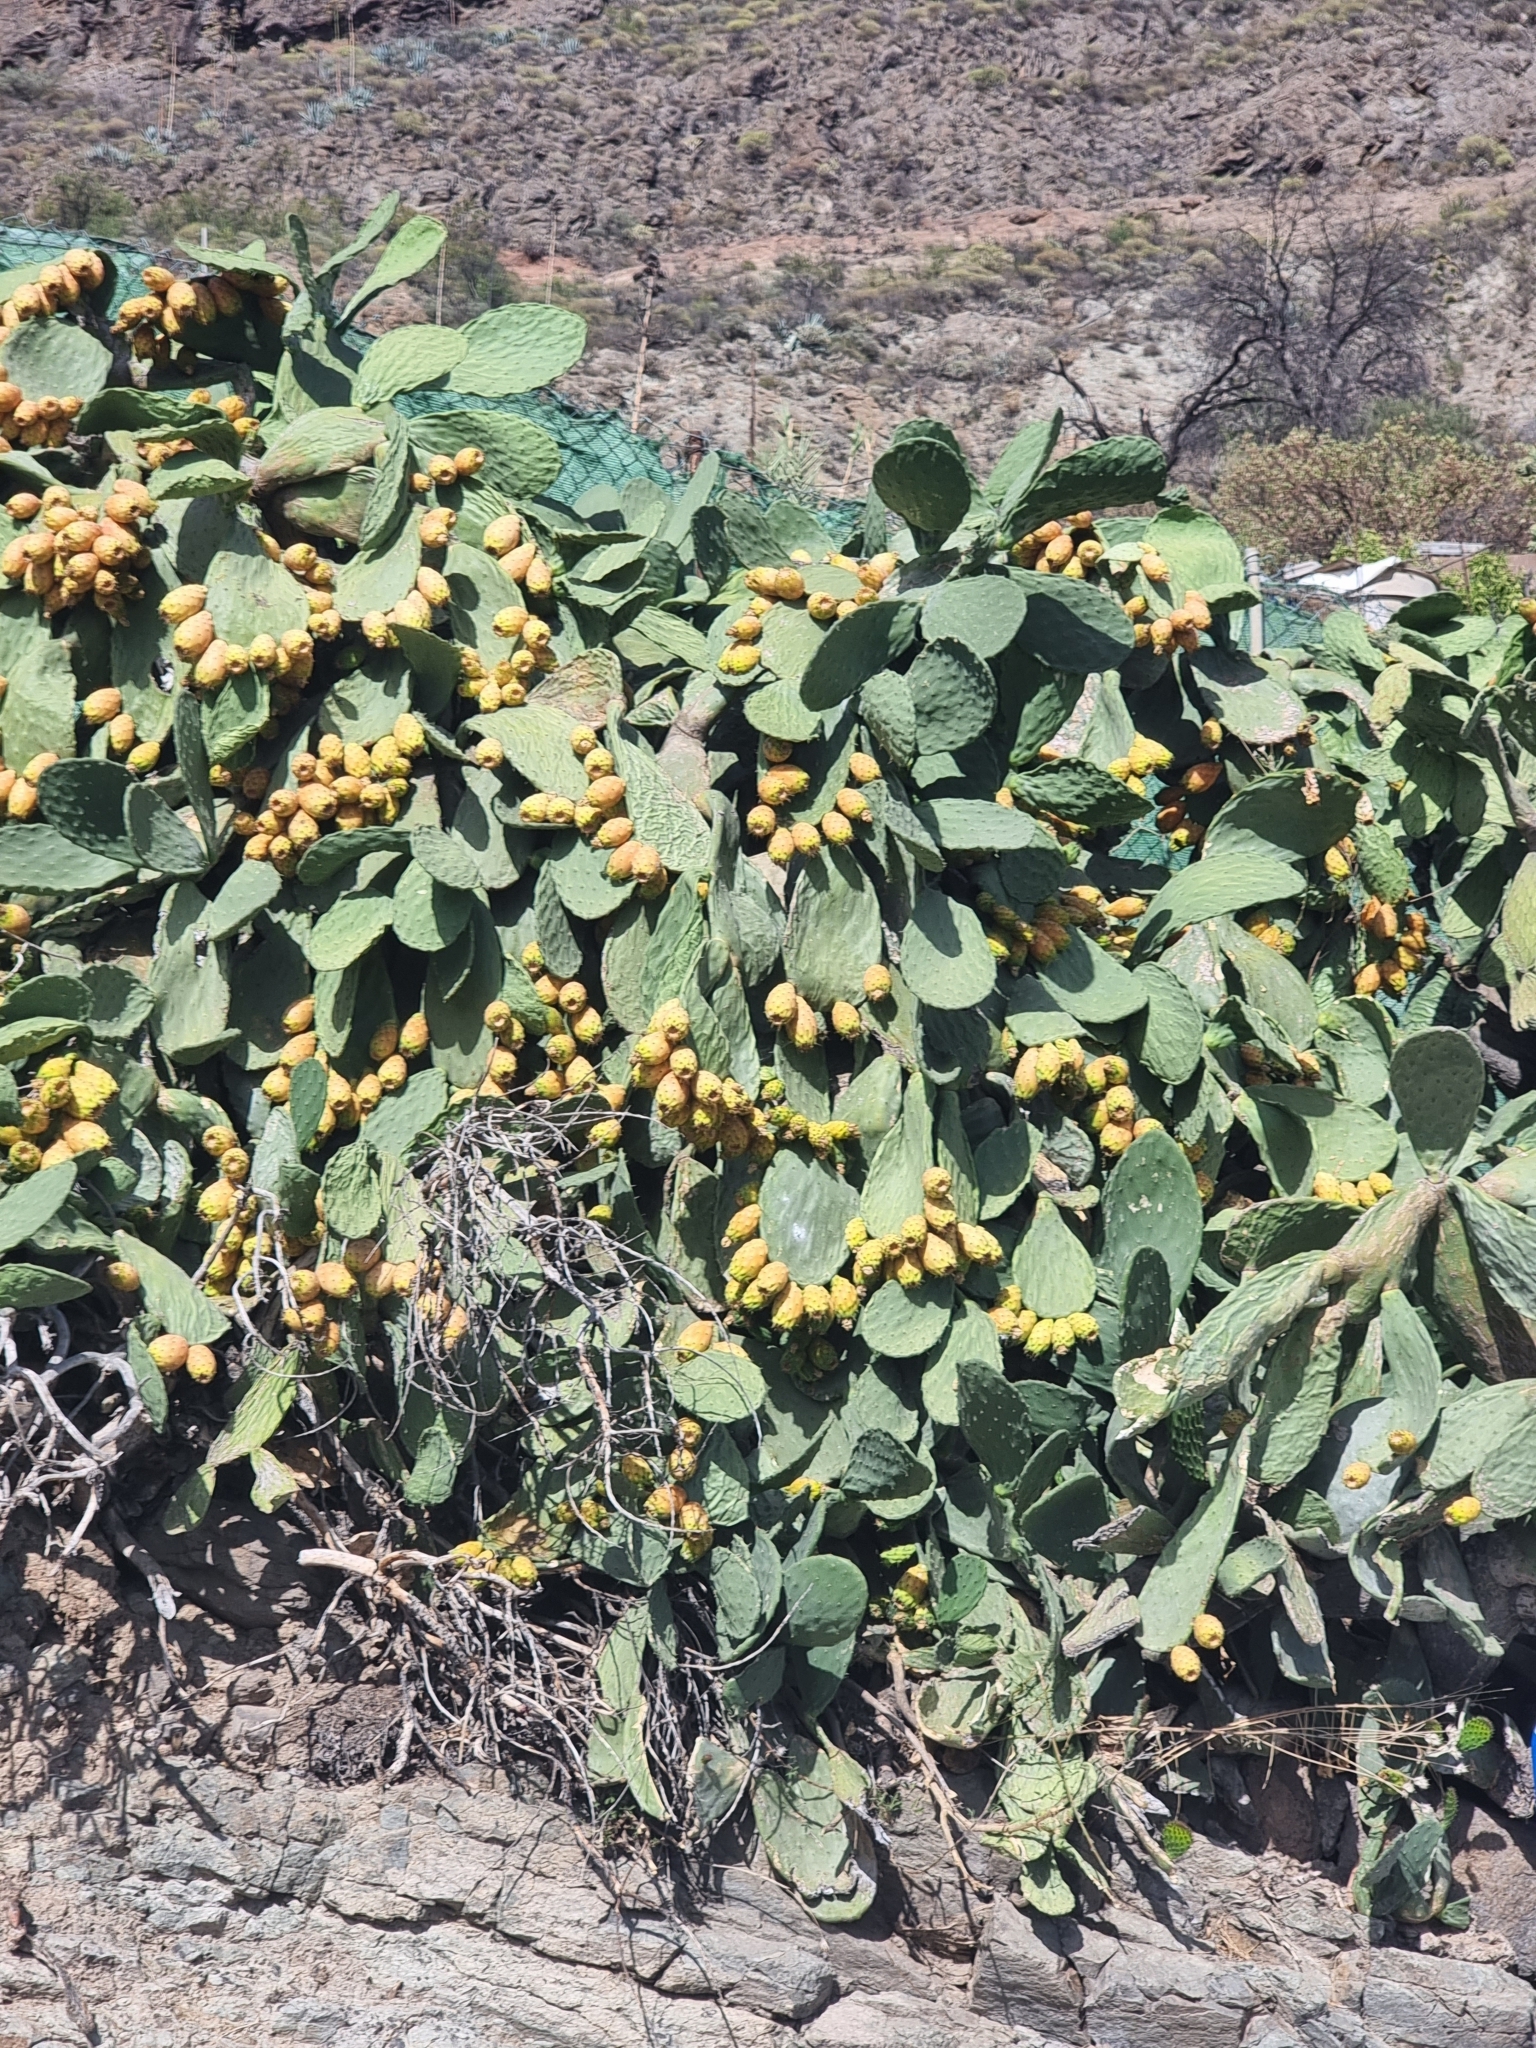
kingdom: Plantae
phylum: Tracheophyta
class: Magnoliopsida
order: Caryophyllales
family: Cactaceae
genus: Opuntia
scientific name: Opuntia ficus-indica
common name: Barbary fig
